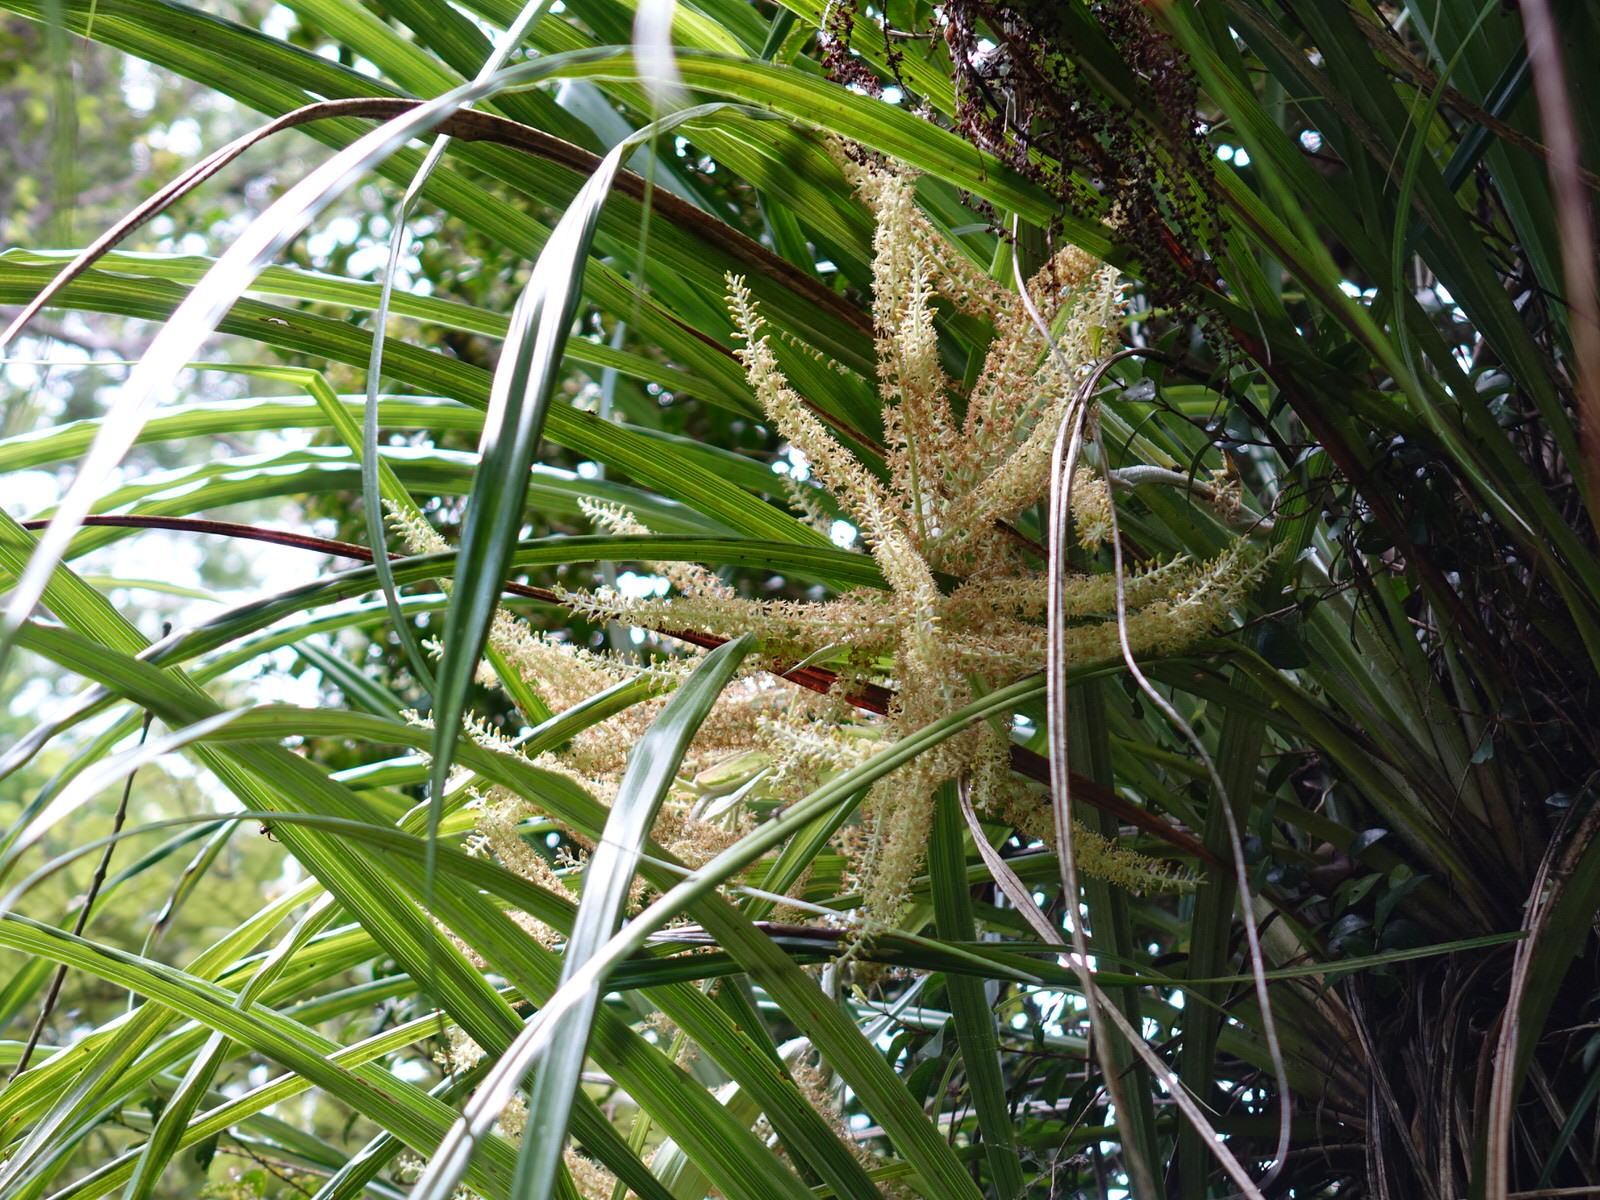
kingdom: Plantae
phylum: Tracheophyta
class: Liliopsida
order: Asparagales
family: Asteliaceae
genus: Astelia
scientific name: Astelia solandri
